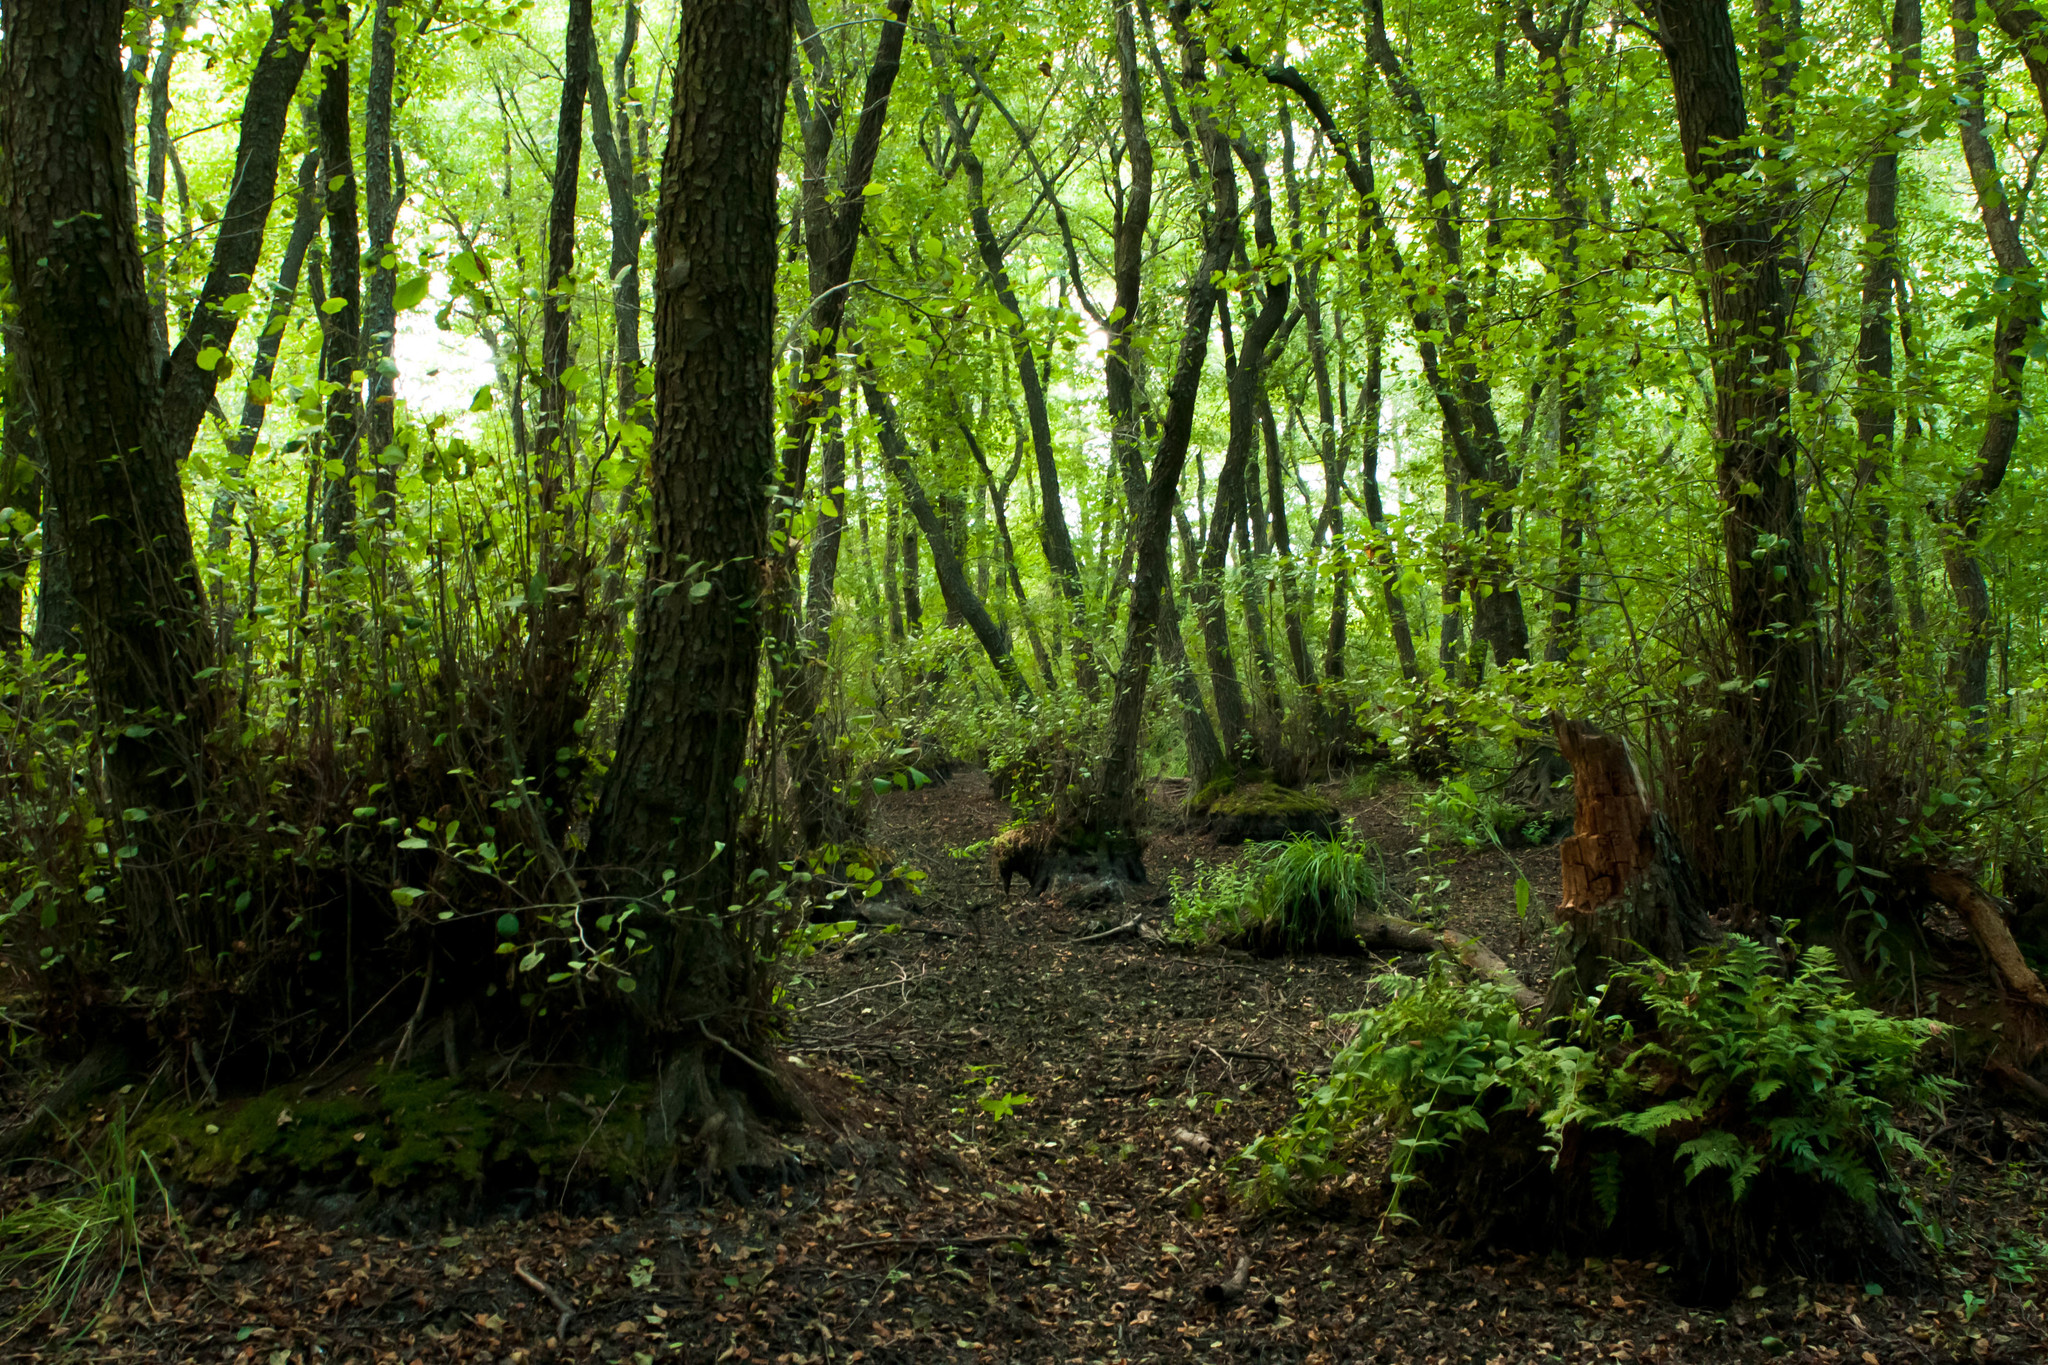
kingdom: Plantae
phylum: Tracheophyta
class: Magnoliopsida
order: Fagales
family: Betulaceae
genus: Alnus
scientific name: Alnus glutinosa
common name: Black alder
